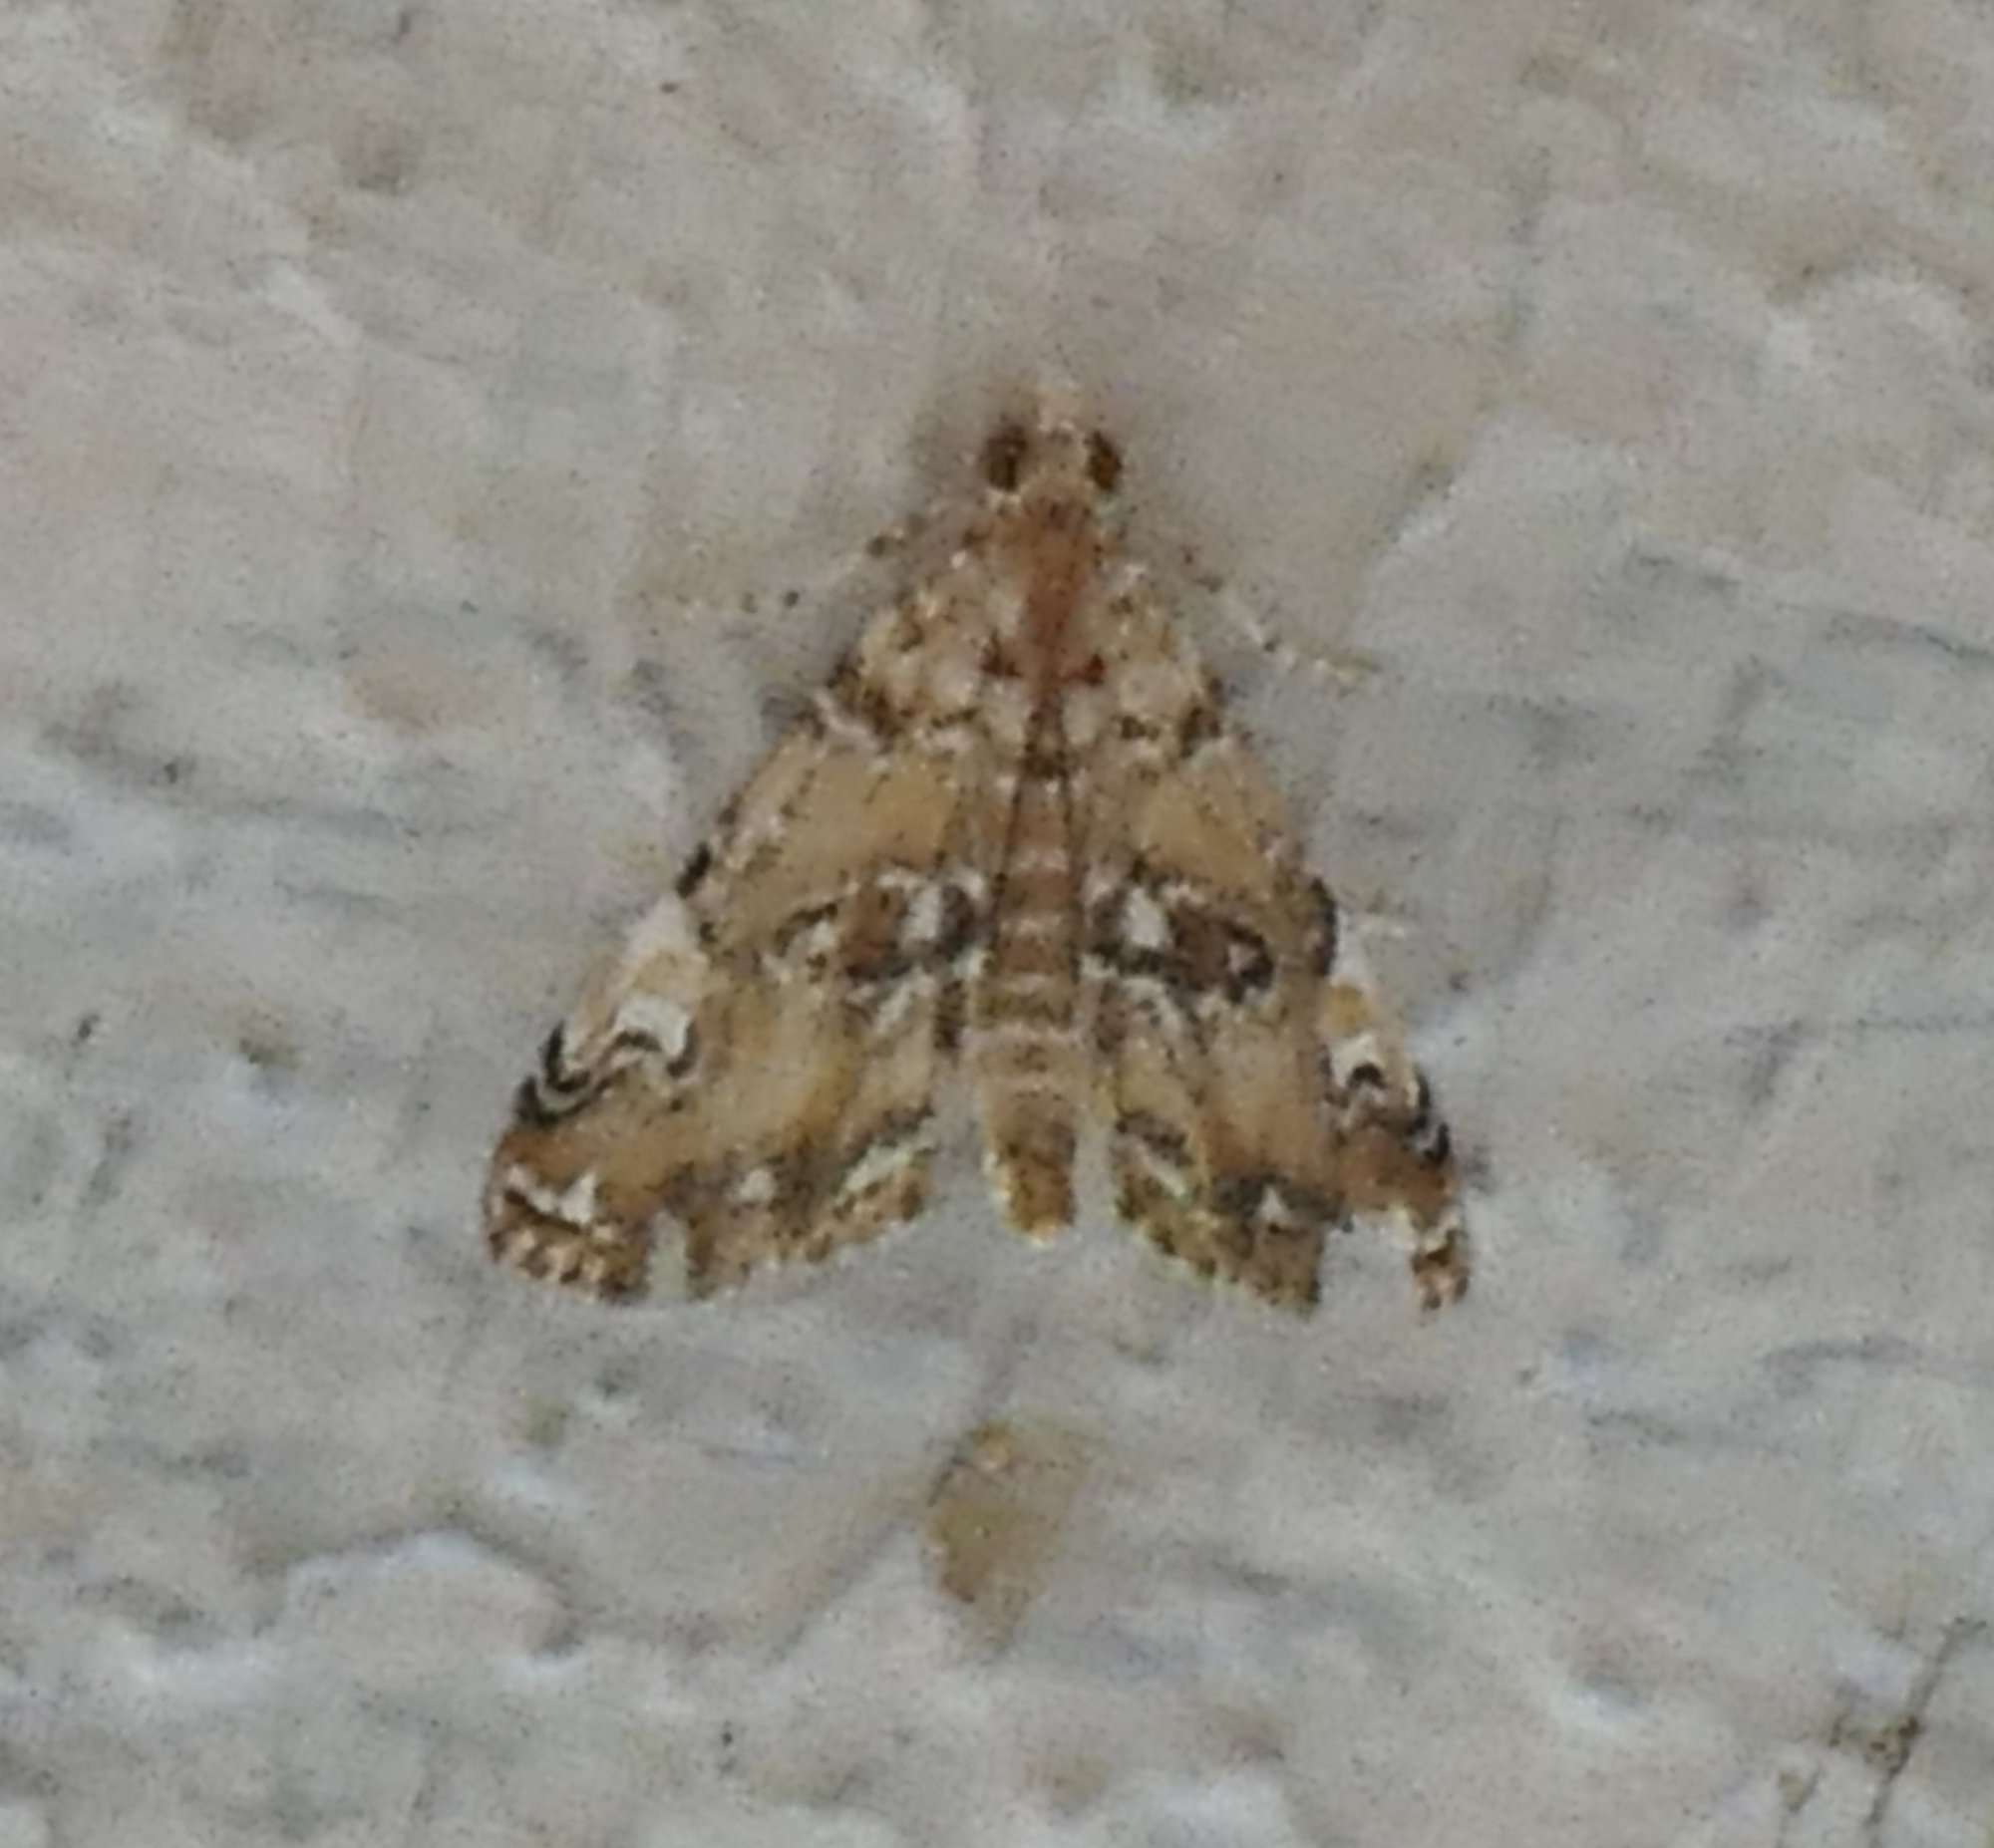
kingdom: Animalia
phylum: Arthropoda
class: Insecta
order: Lepidoptera
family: Crambidae
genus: Elophila
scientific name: Elophila gyralis
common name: Waterlily borer moth
